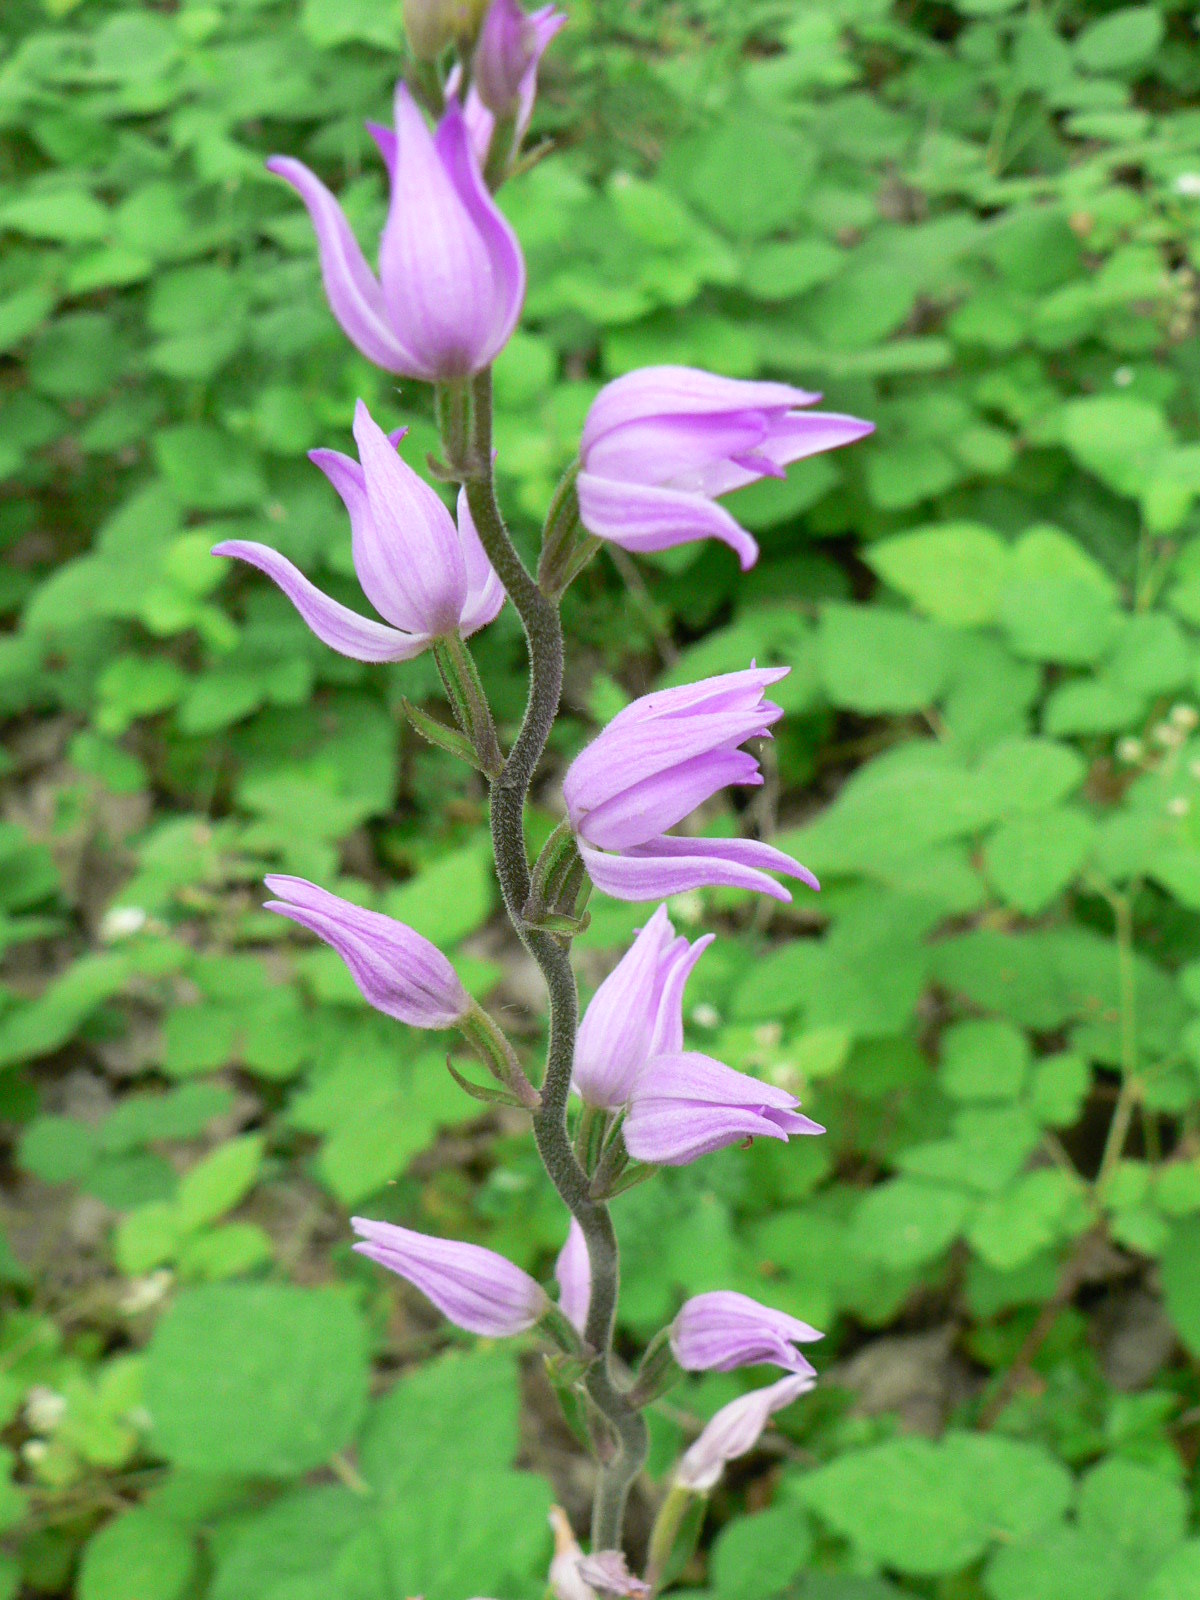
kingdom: Plantae
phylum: Tracheophyta
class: Liliopsida
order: Asparagales
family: Orchidaceae
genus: Cephalanthera
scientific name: Cephalanthera rubra
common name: Red helleborine
